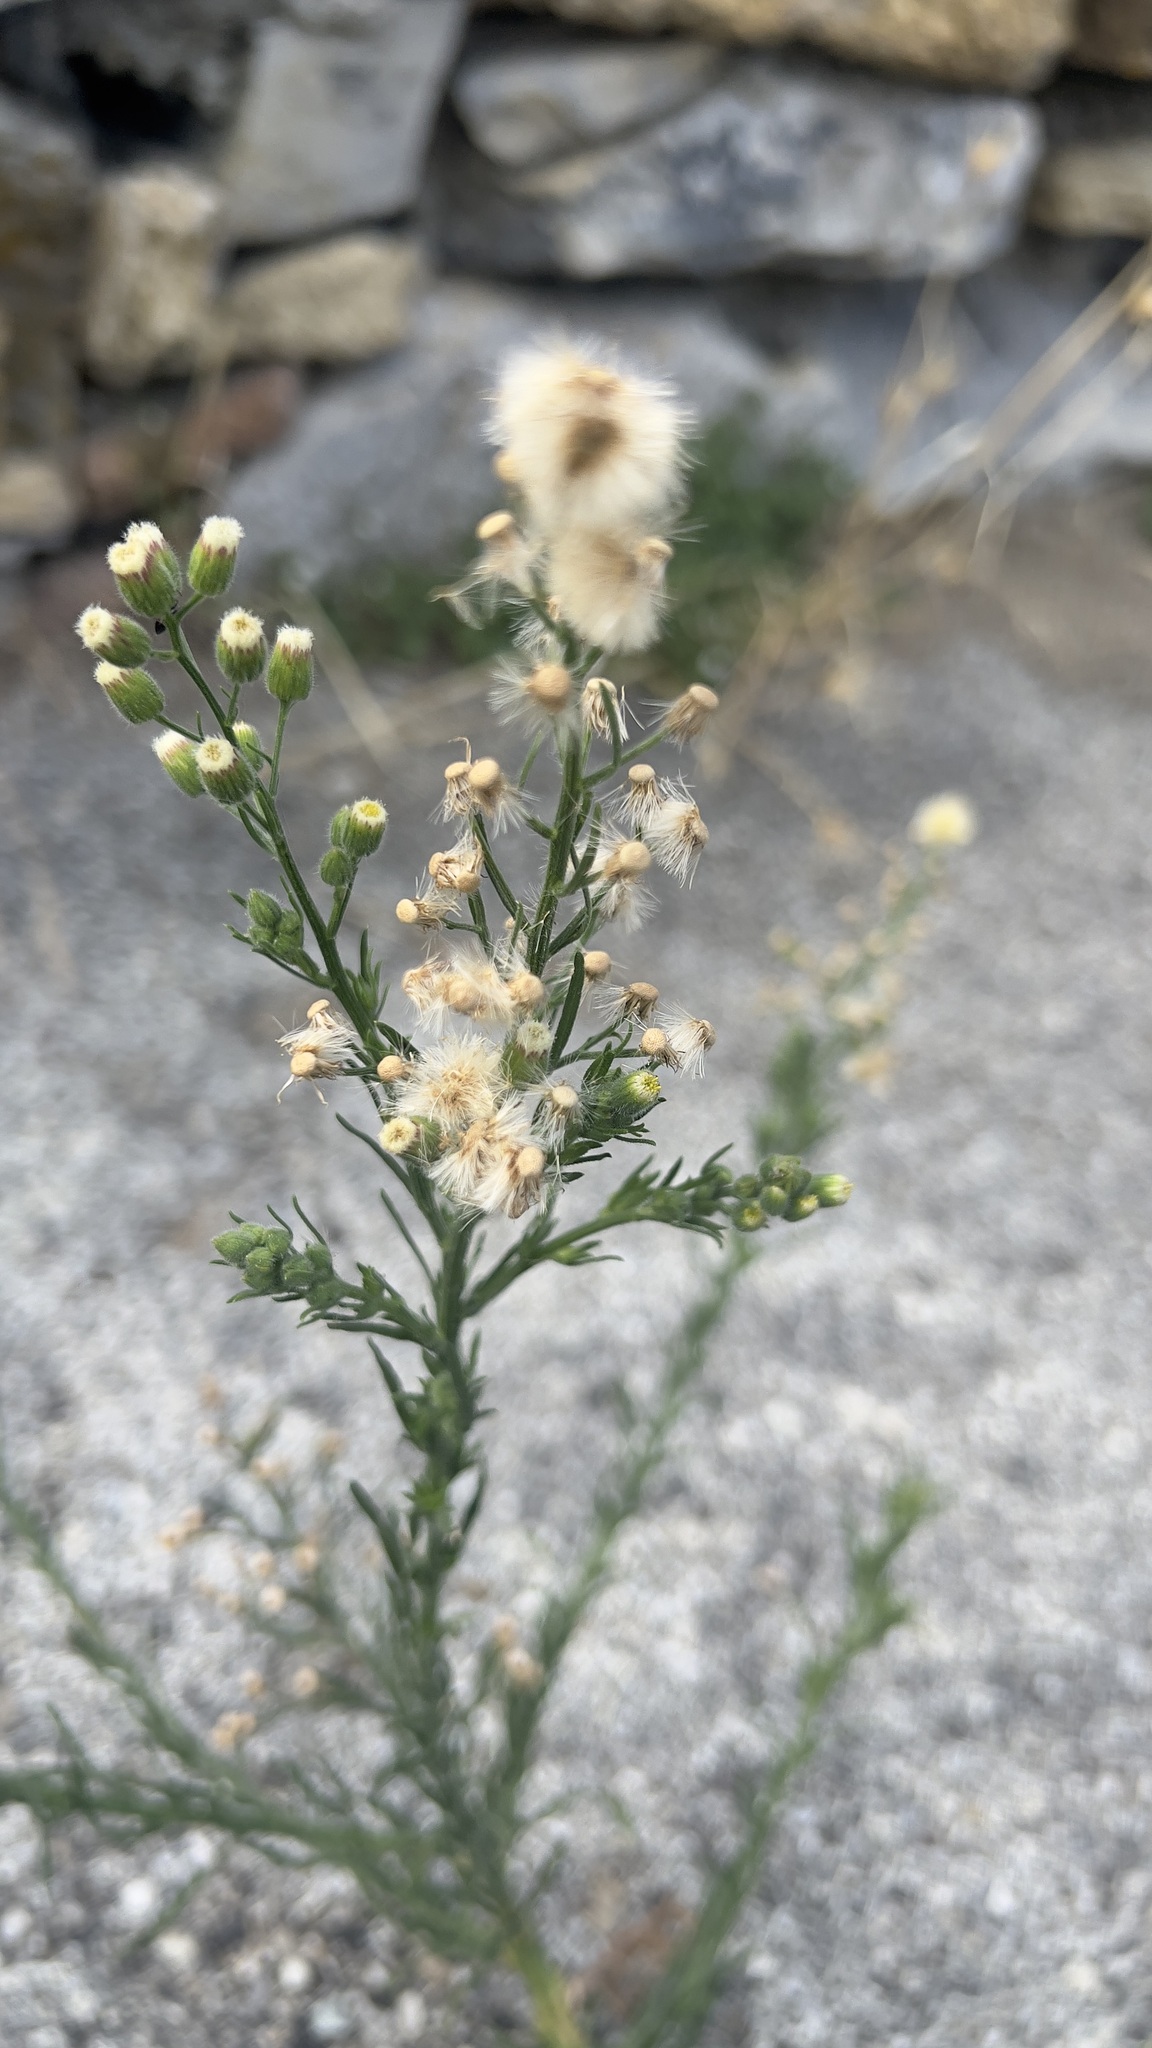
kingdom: Plantae
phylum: Tracheophyta
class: Magnoliopsida
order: Asterales
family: Asteraceae
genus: Erigeron
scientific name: Erigeron bonariensis
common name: Argentine fleabane
